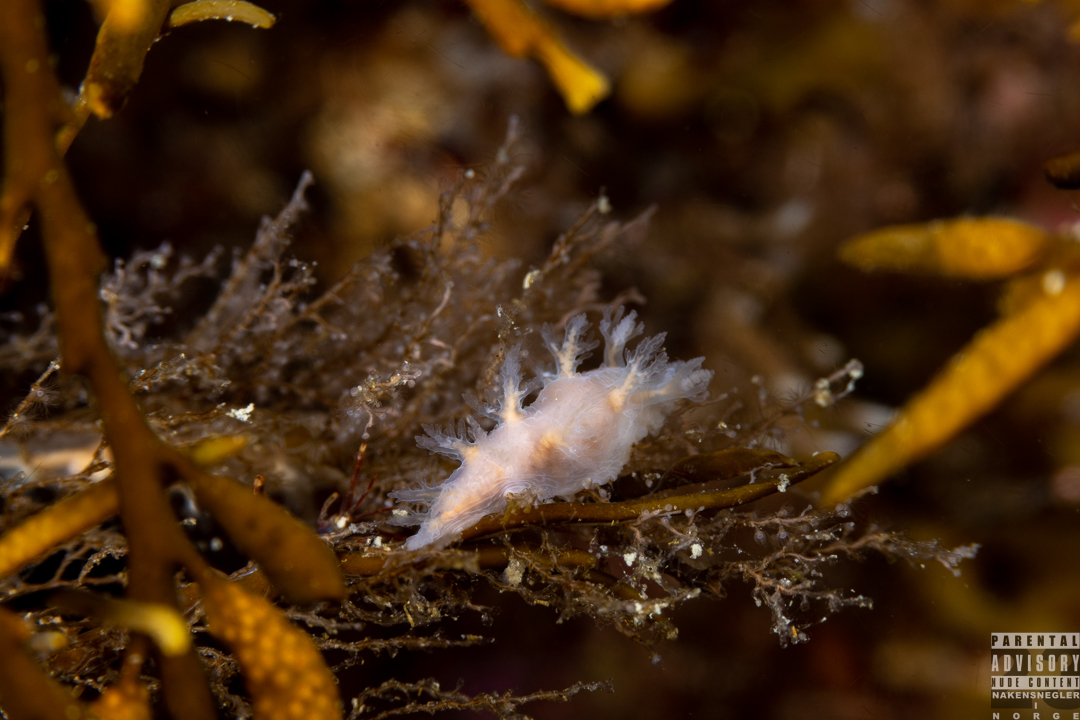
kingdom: Animalia
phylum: Mollusca
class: Gastropoda
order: Nudibranchia
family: Dendronotidae
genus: Dendronotus
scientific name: Dendronotus frondosus
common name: Bushy-backed nudibranch
